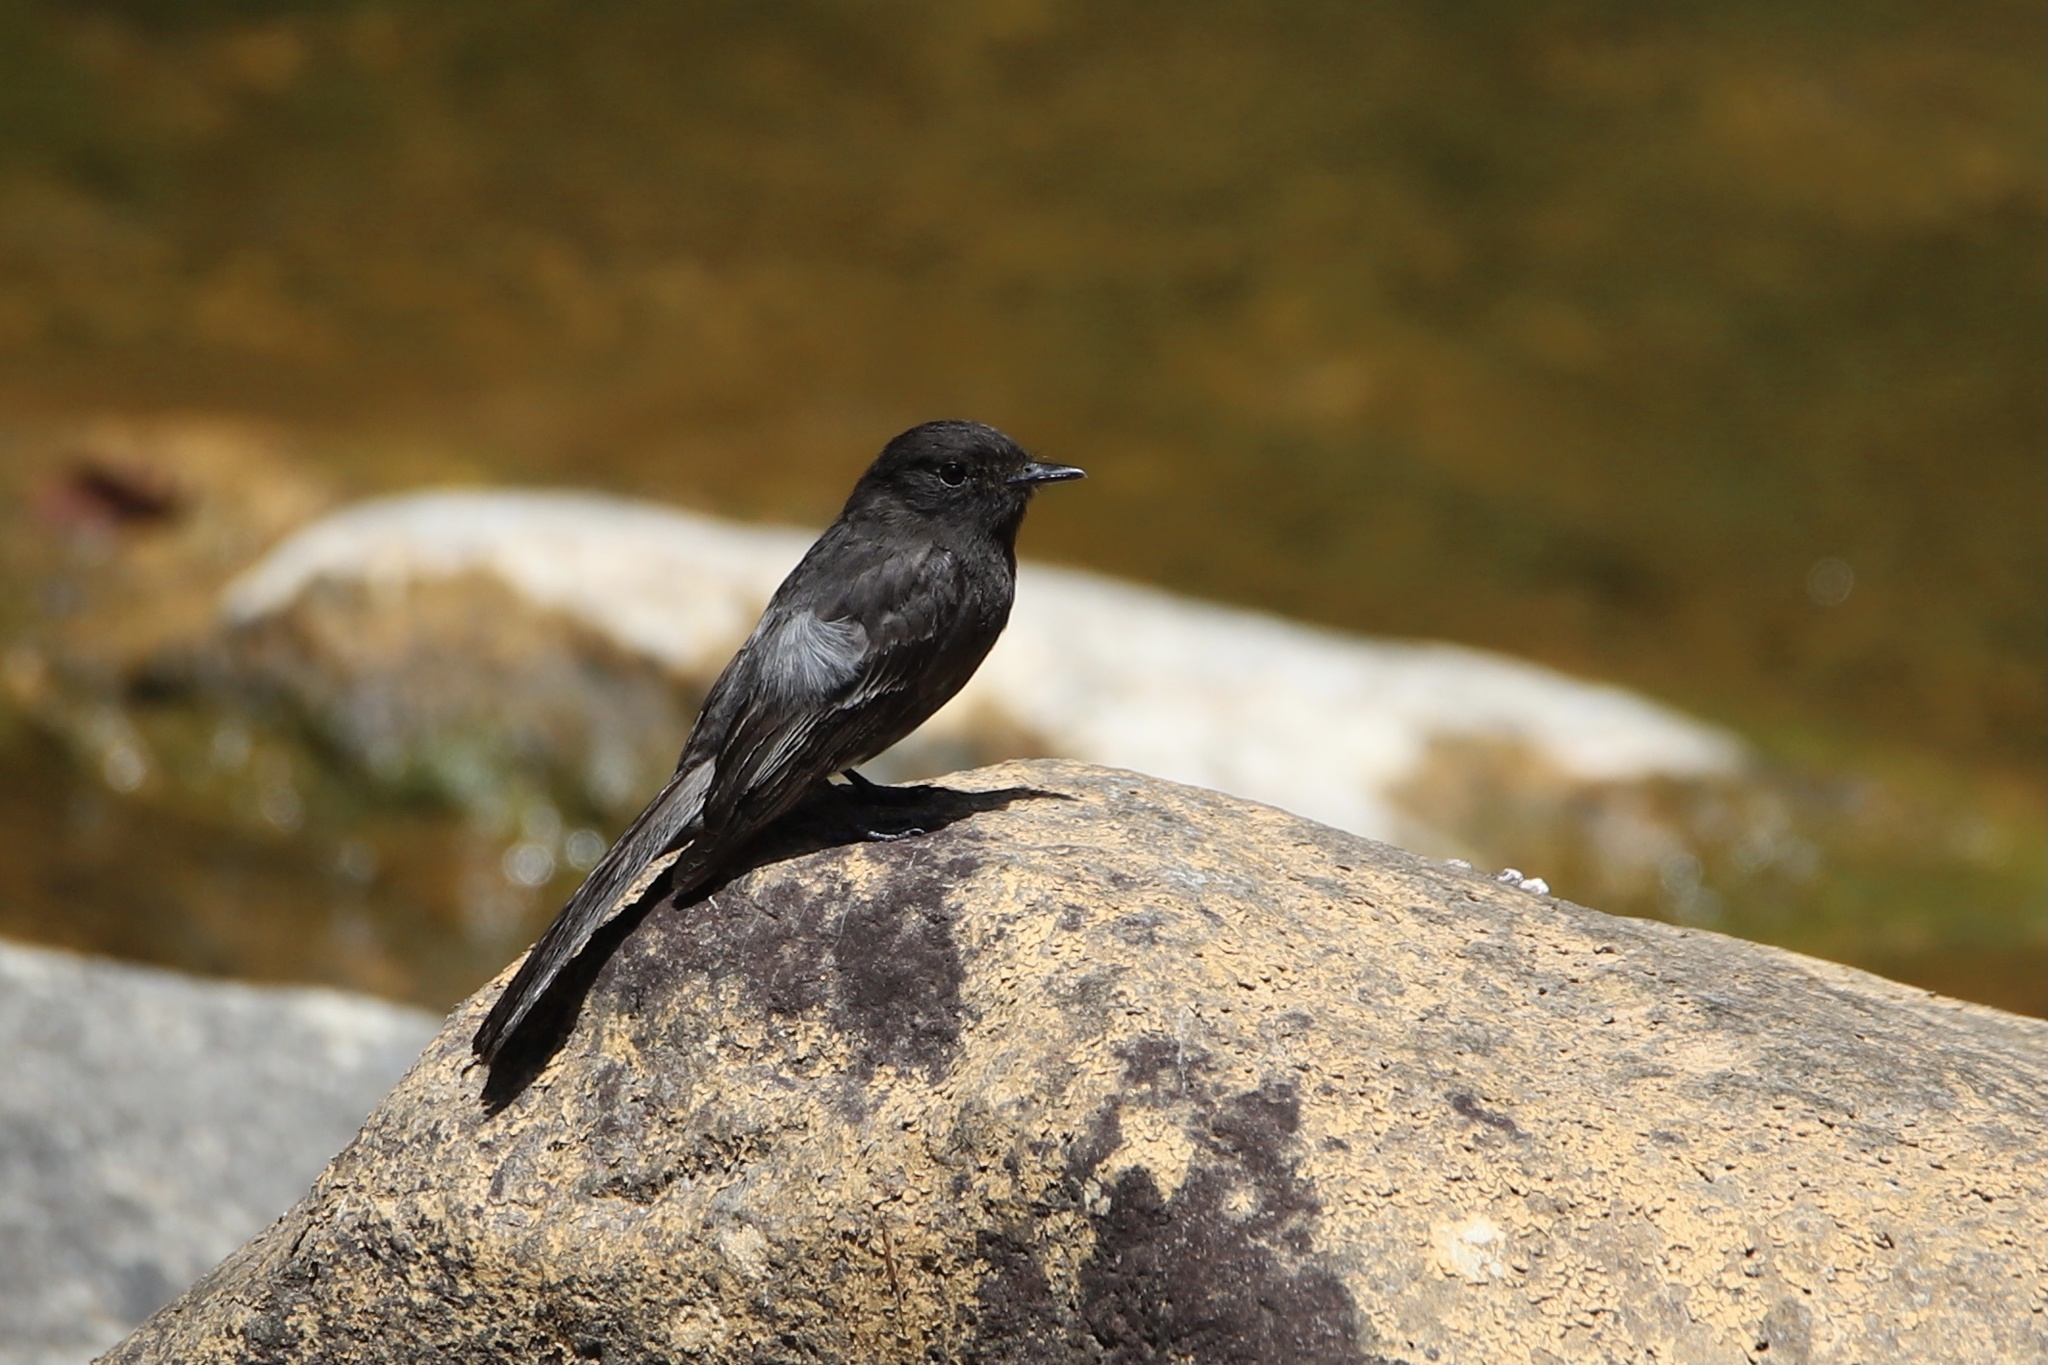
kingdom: Animalia
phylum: Chordata
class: Aves
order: Passeriformes
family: Tyrannidae
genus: Sayornis
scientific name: Sayornis nigricans
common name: Black phoebe
